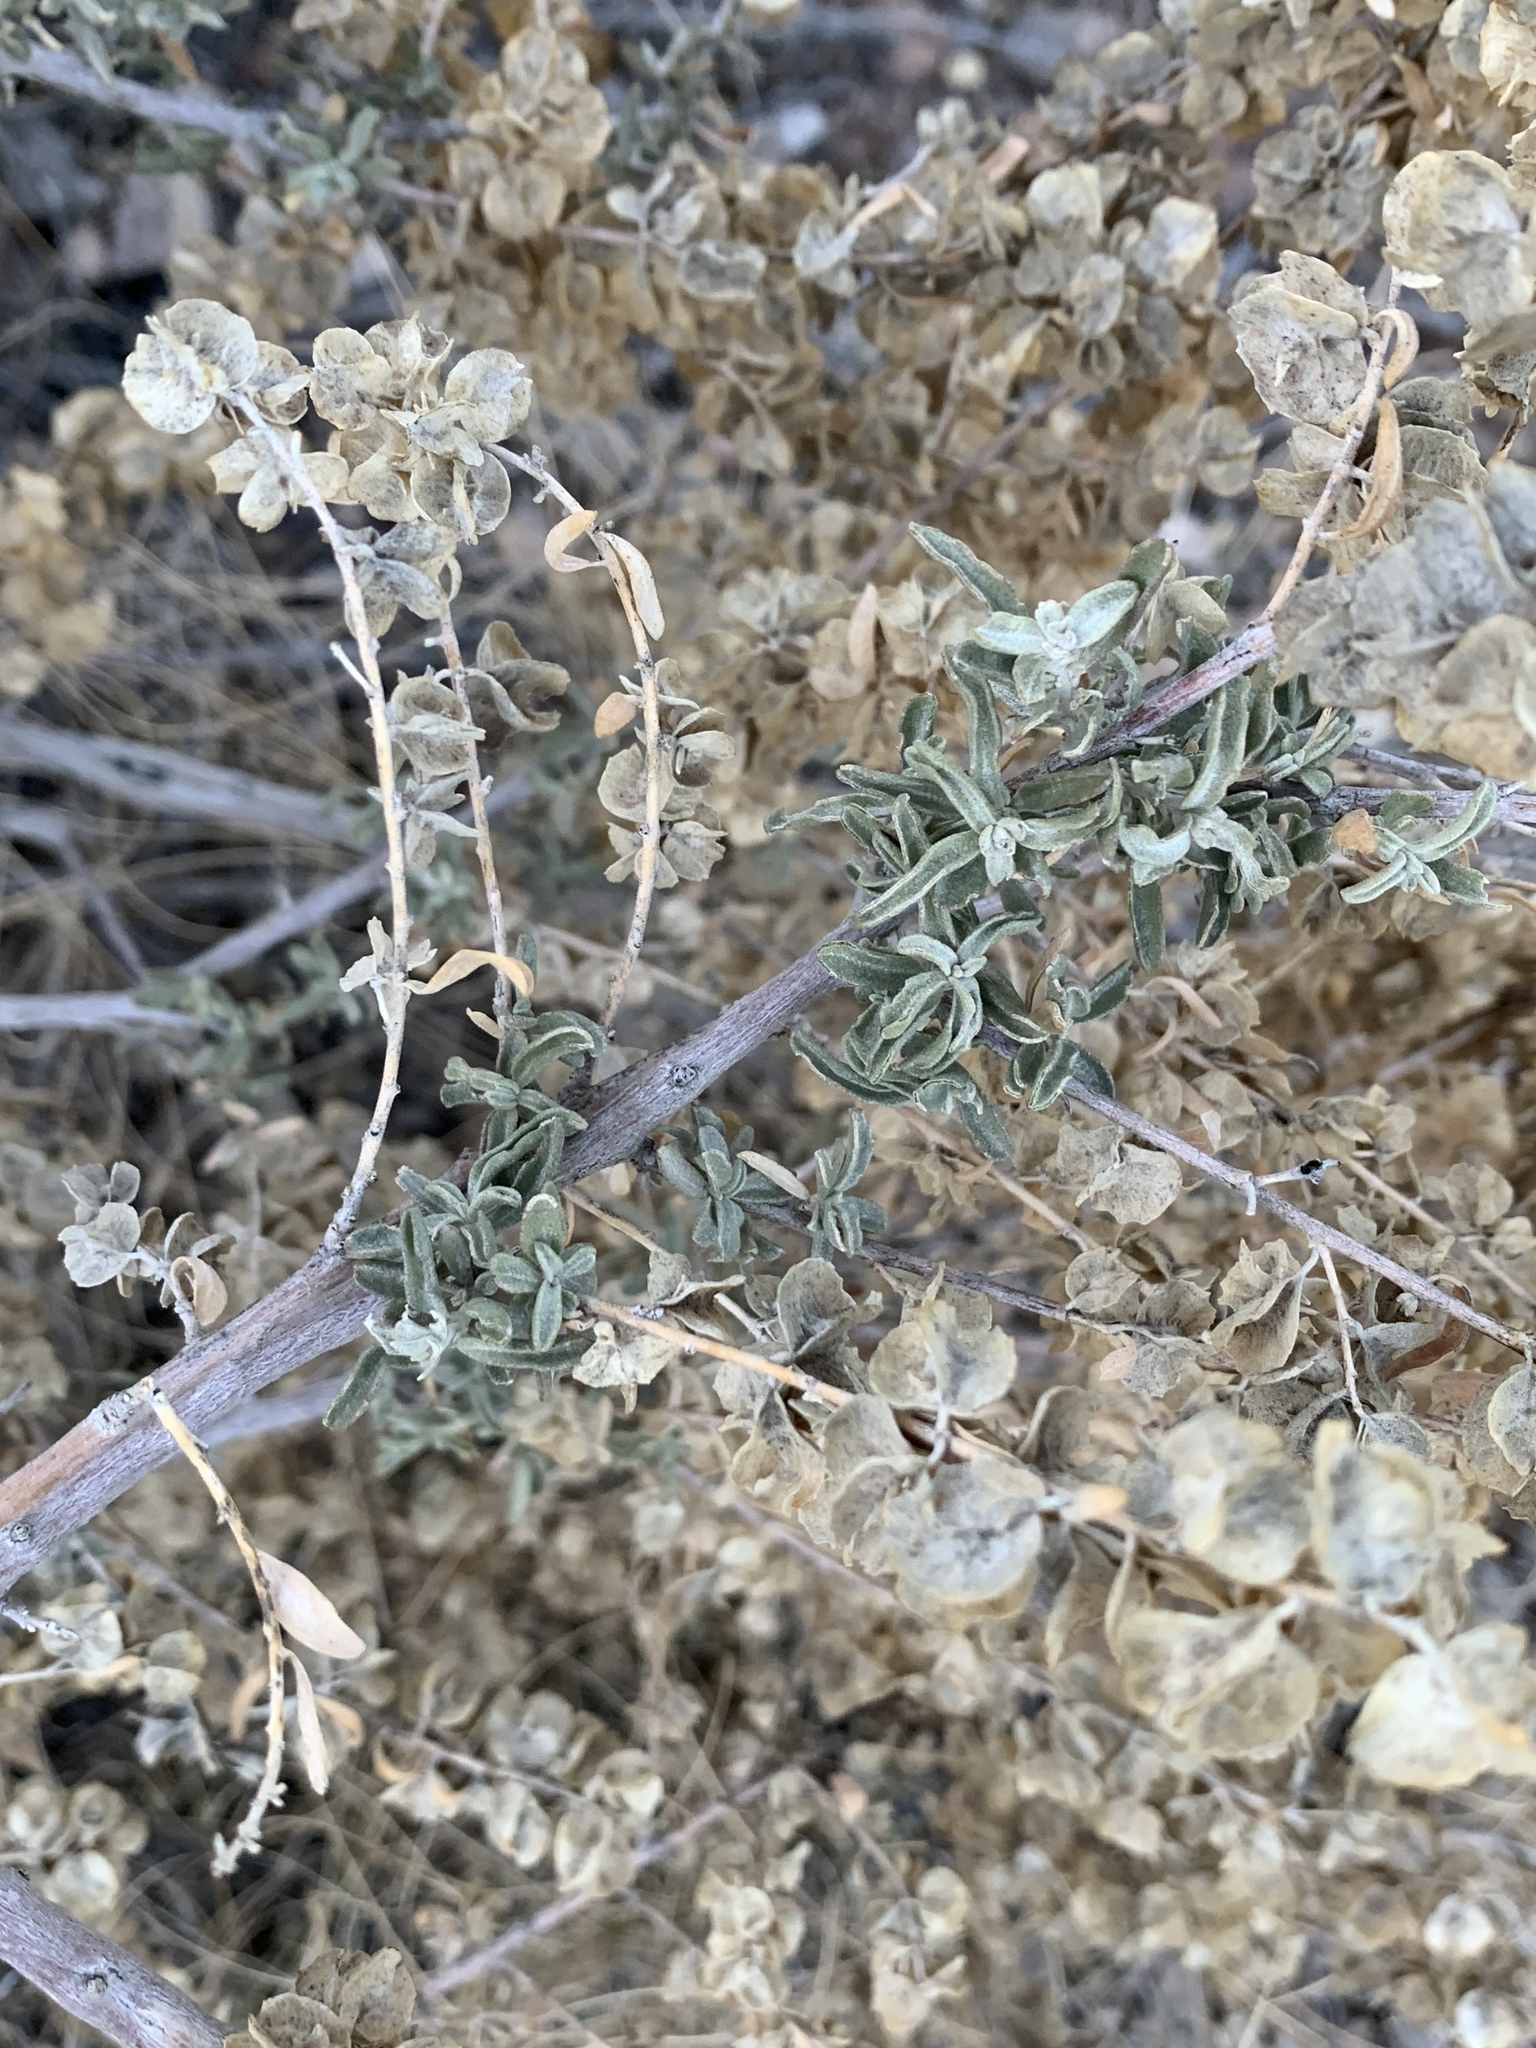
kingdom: Plantae
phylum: Tracheophyta
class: Magnoliopsida
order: Caryophyllales
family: Amaranthaceae
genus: Atriplex
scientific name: Atriplex canescens
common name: Four-wing saltbush
